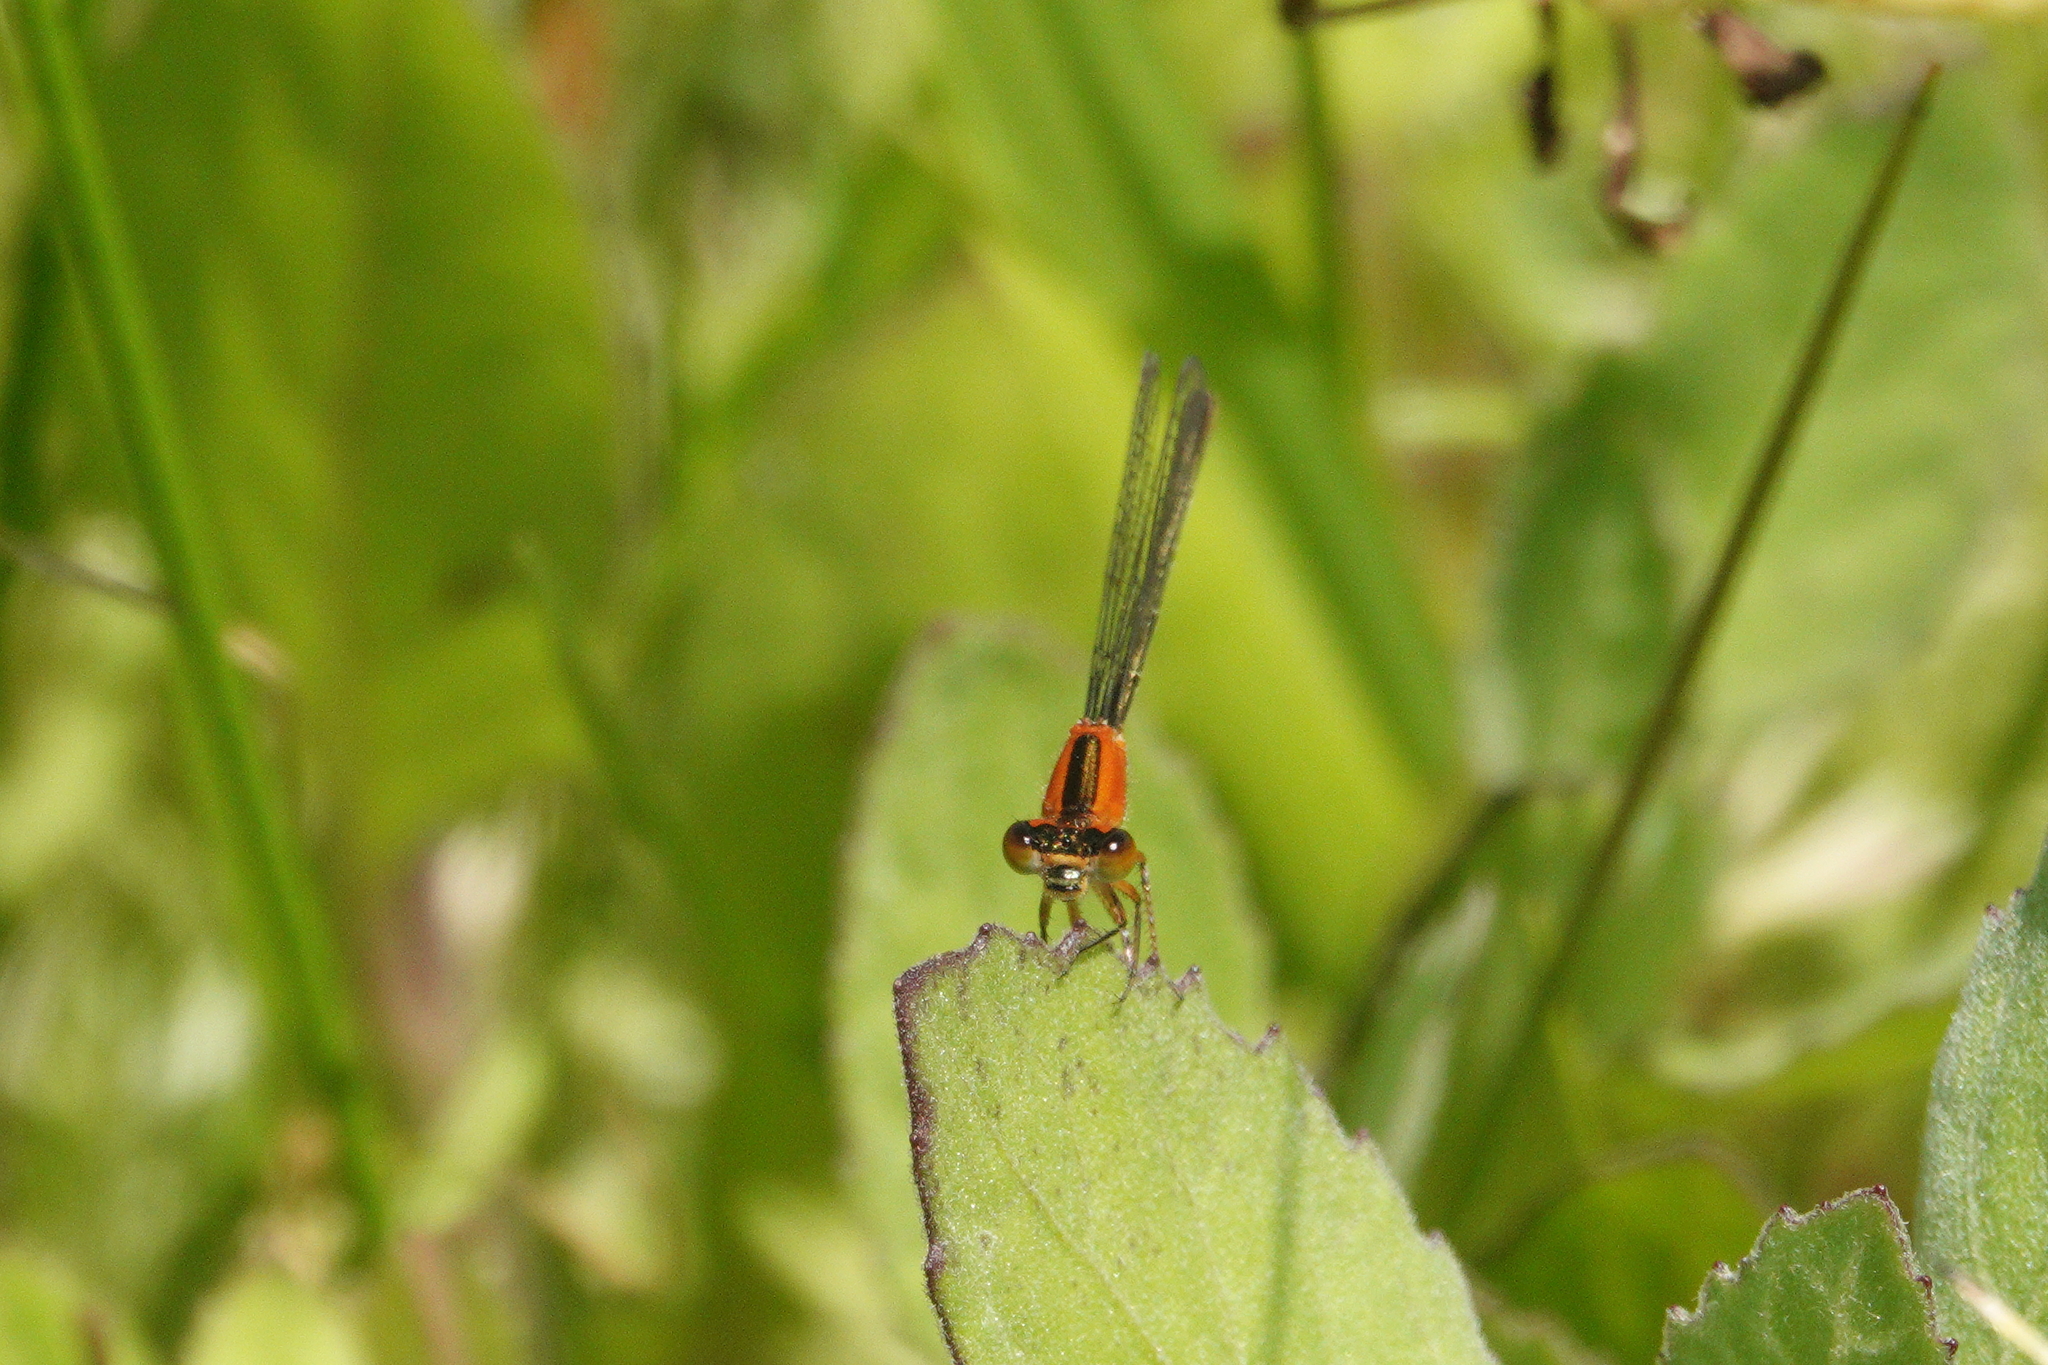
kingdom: Animalia
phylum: Arthropoda
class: Insecta
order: Odonata
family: Coenagrionidae
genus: Ischnura
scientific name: Ischnura ramburii
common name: Rambur's forktail
